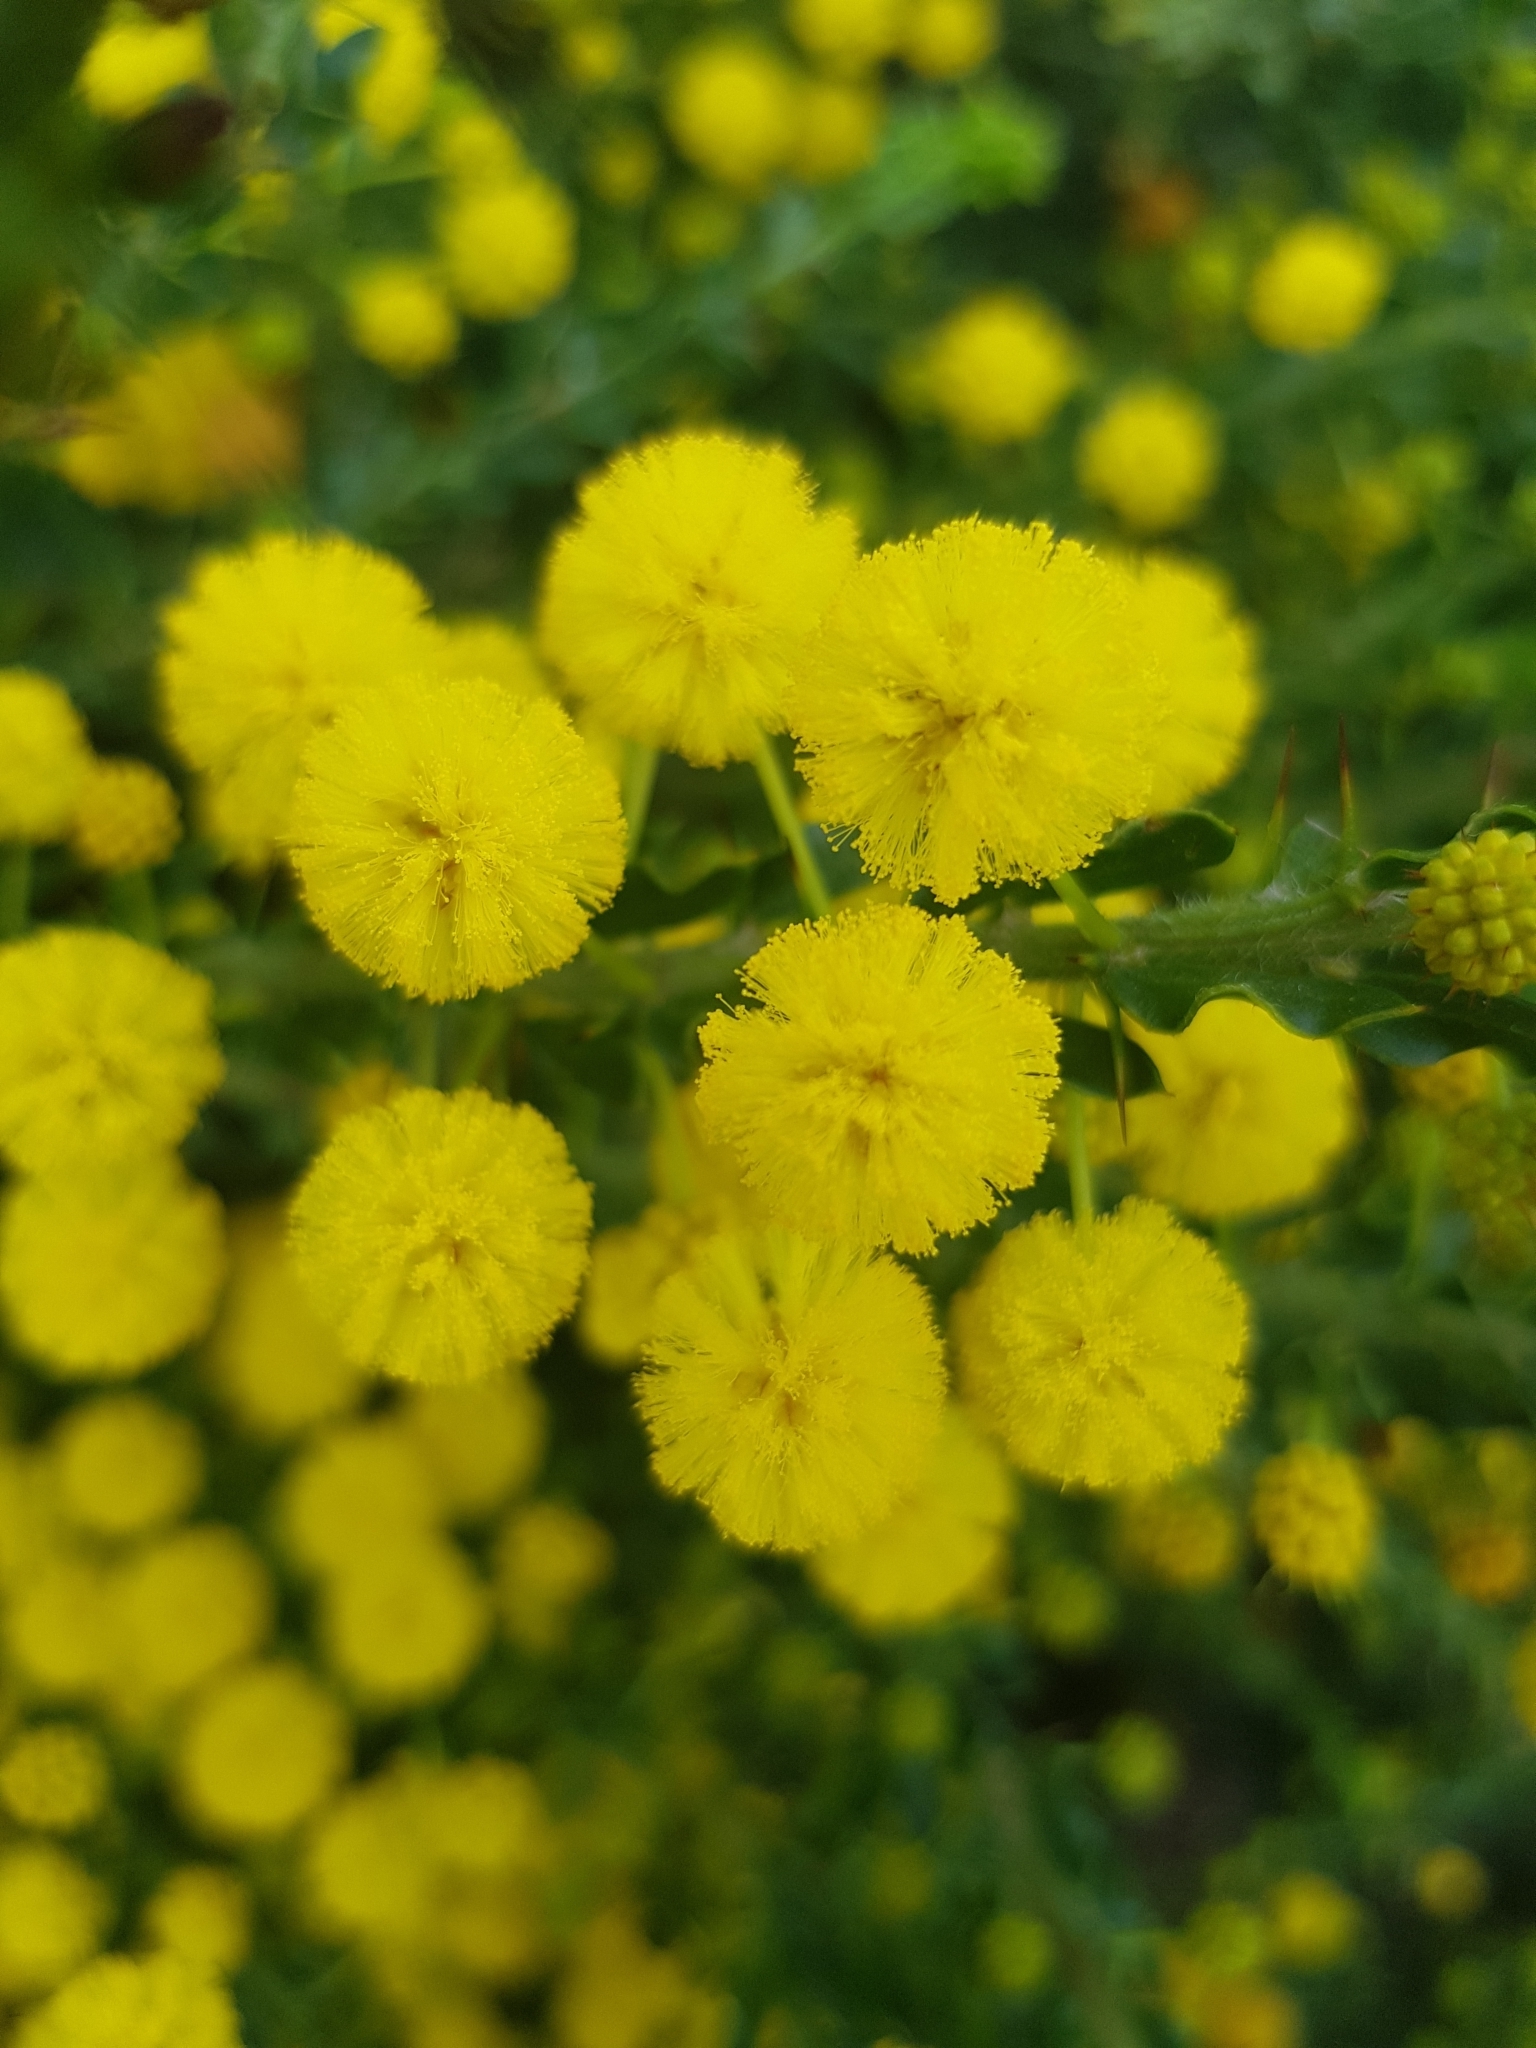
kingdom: Plantae
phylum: Tracheophyta
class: Magnoliopsida
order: Fabales
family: Fabaceae
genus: Acacia
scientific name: Acacia paradoxa
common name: Paradox acacia
